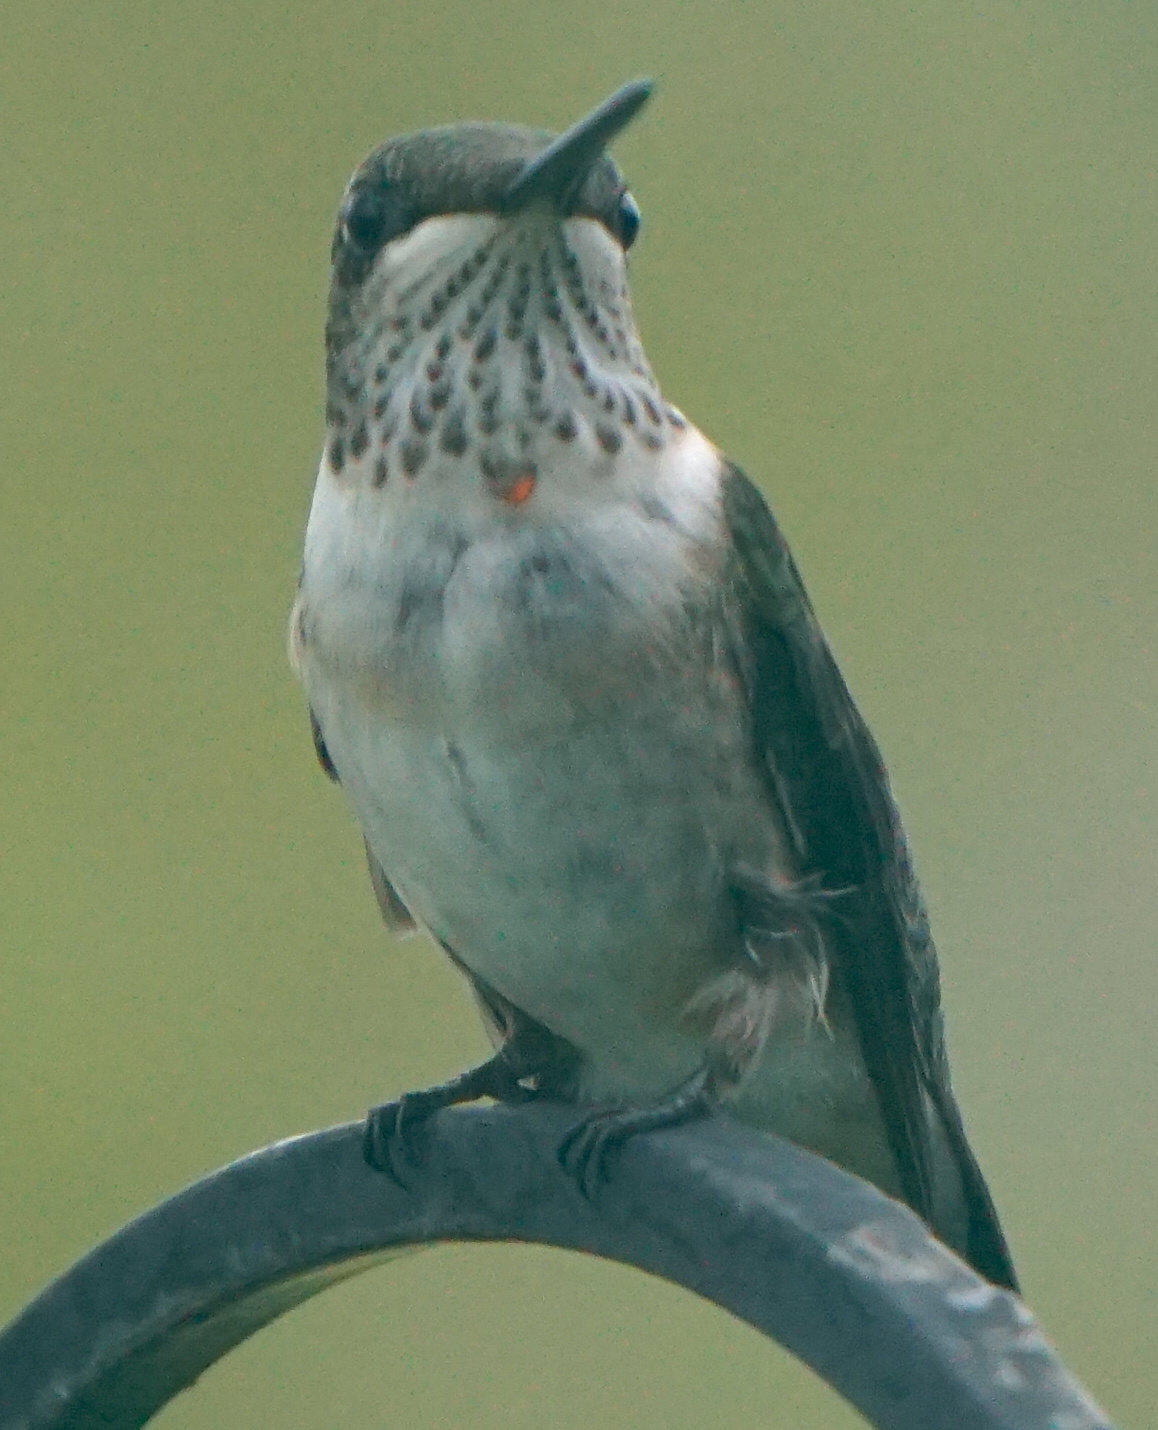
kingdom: Animalia
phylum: Chordata
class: Aves
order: Apodiformes
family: Trochilidae
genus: Archilochus
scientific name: Archilochus colubris
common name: Ruby-throated hummingbird
